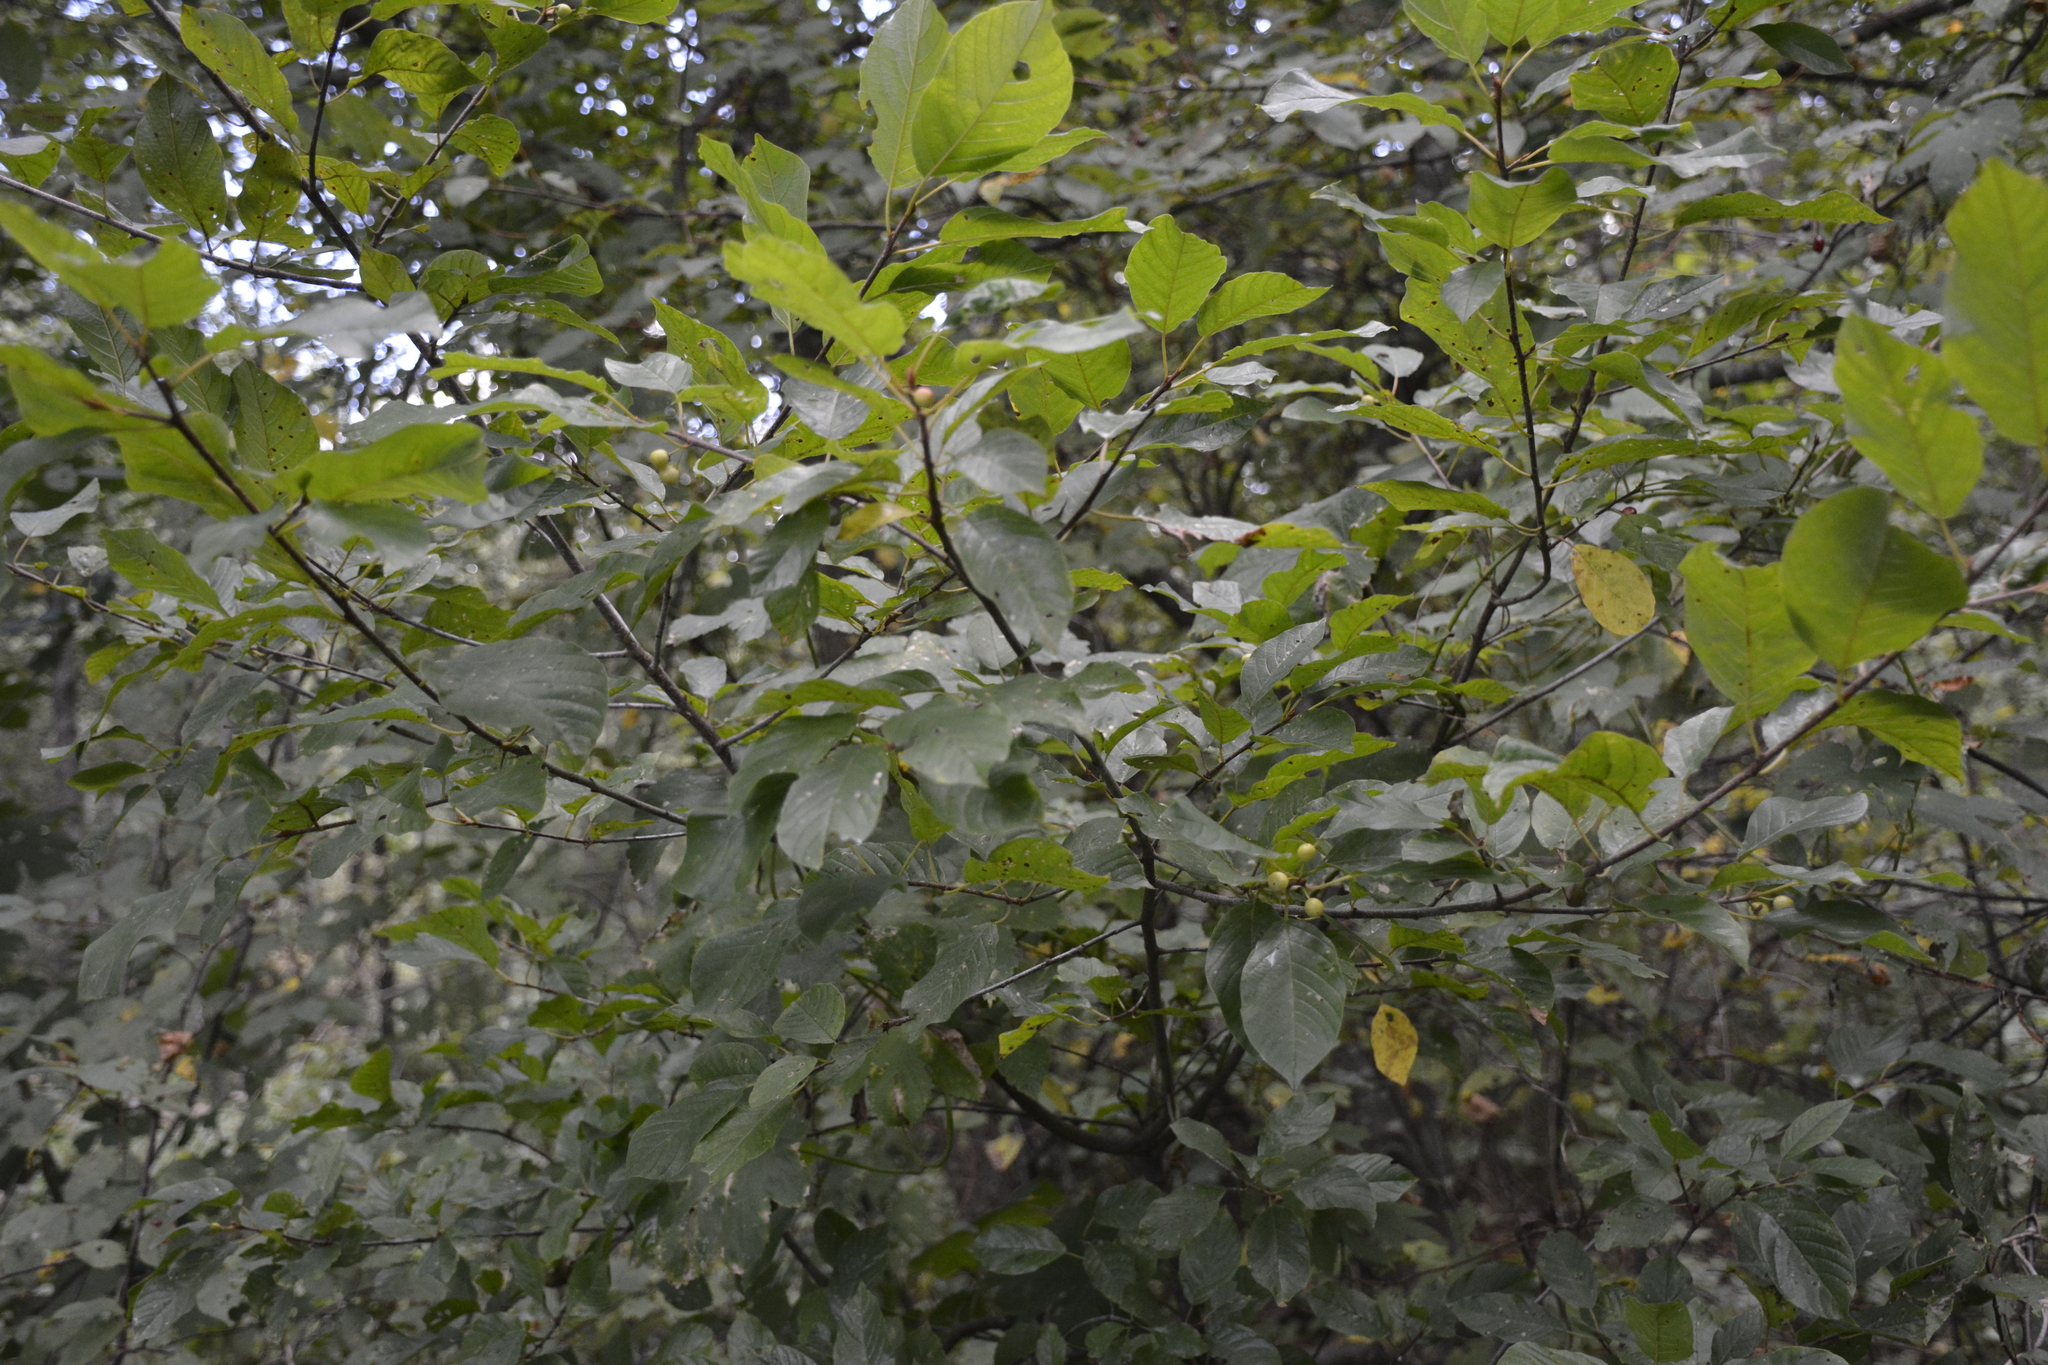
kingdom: Plantae
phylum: Tracheophyta
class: Magnoliopsida
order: Rosales
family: Rhamnaceae
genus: Frangula
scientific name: Frangula alnus
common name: Alder buckthorn
